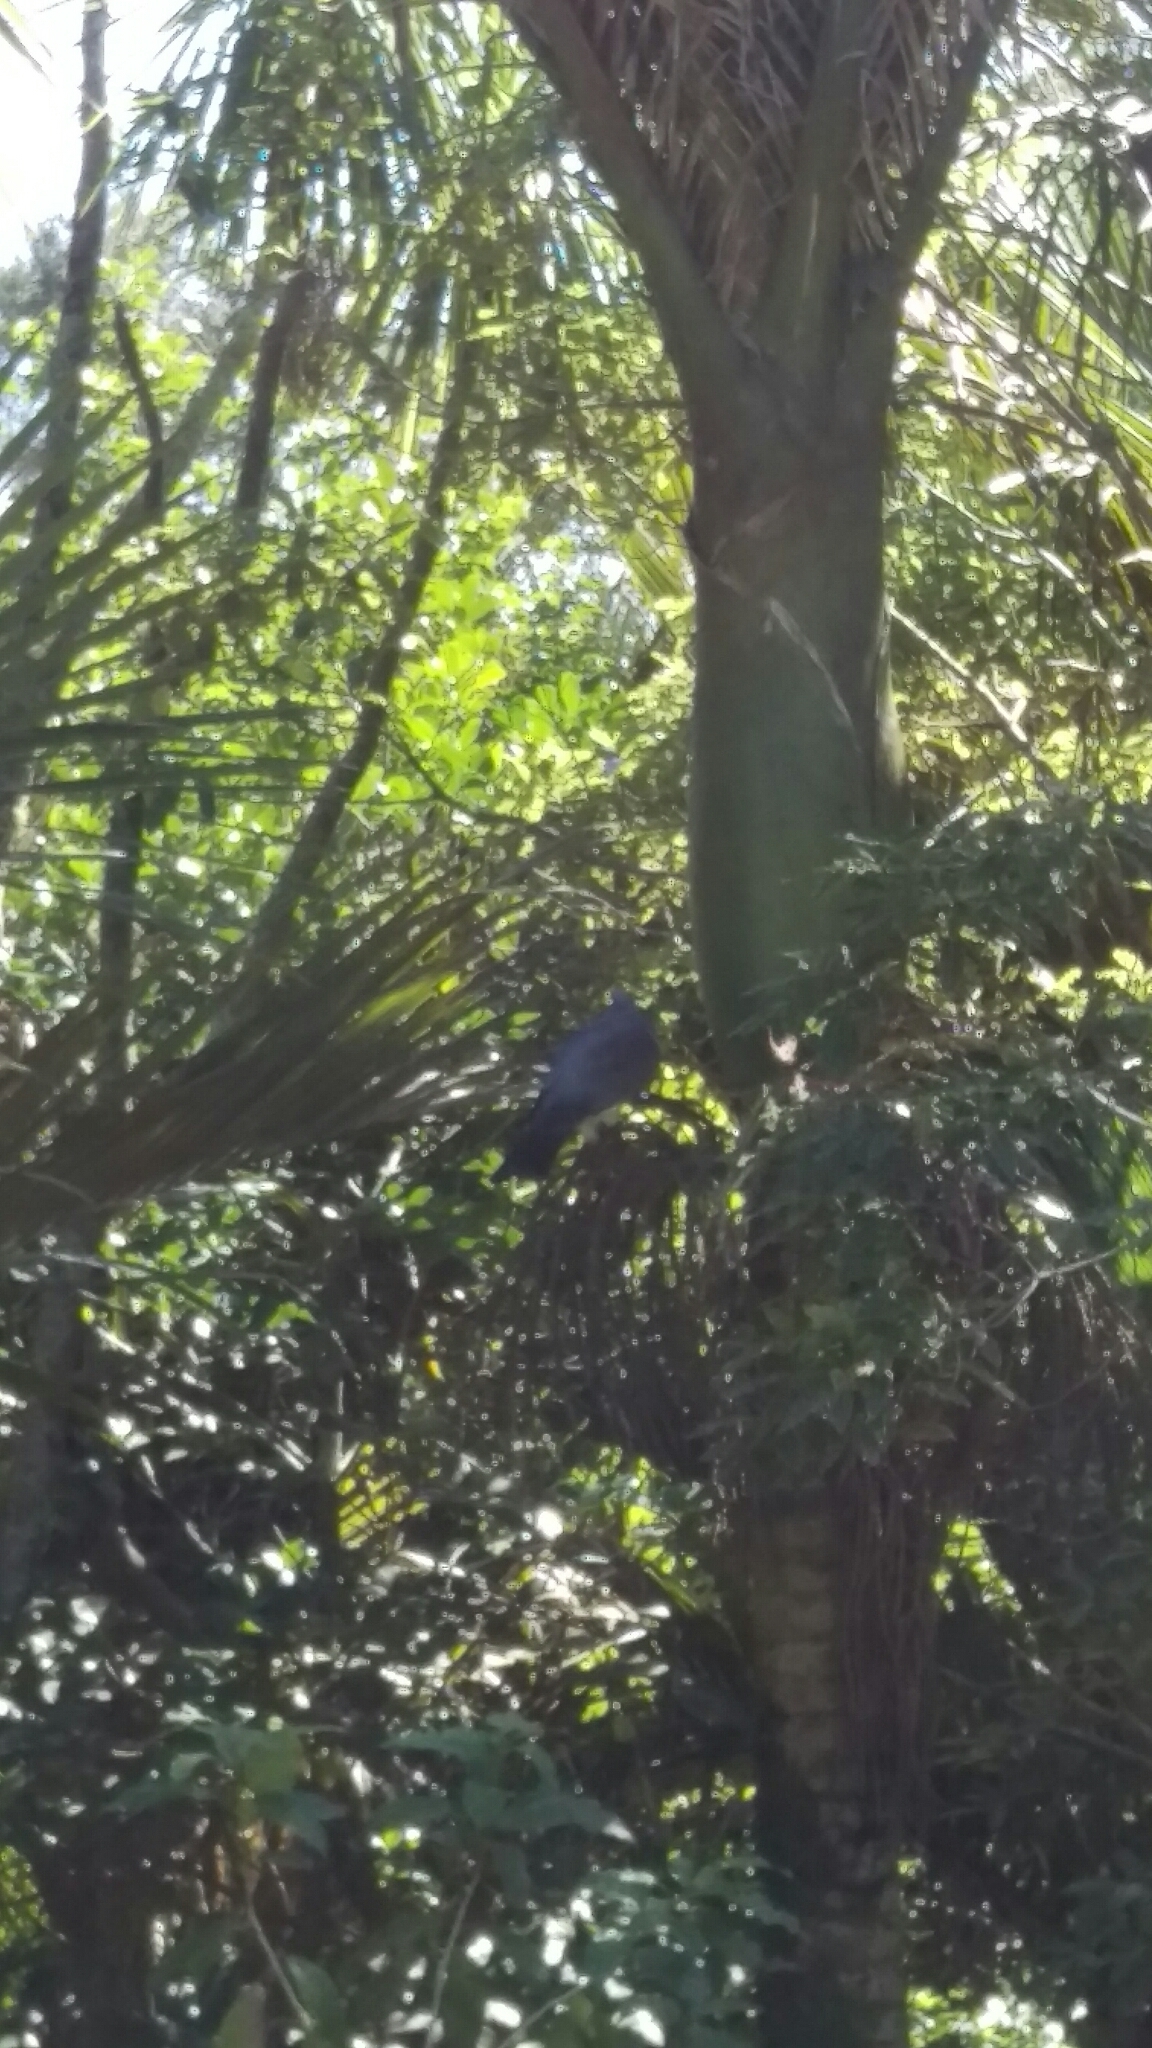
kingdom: Animalia
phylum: Chordata
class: Aves
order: Columbiformes
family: Columbidae
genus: Hemiphaga
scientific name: Hemiphaga novaeseelandiae
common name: New zealand pigeon
